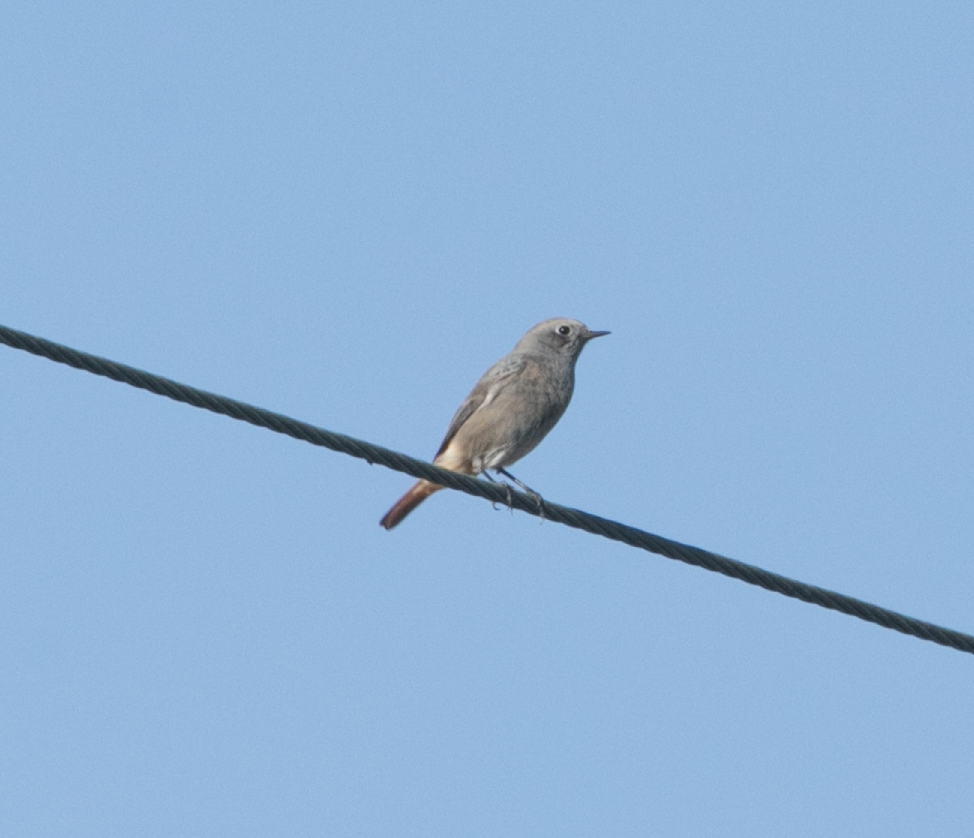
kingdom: Animalia
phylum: Chordata
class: Aves
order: Passeriformes
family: Muscicapidae
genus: Phoenicurus
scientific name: Phoenicurus ochruros
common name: Black redstart
